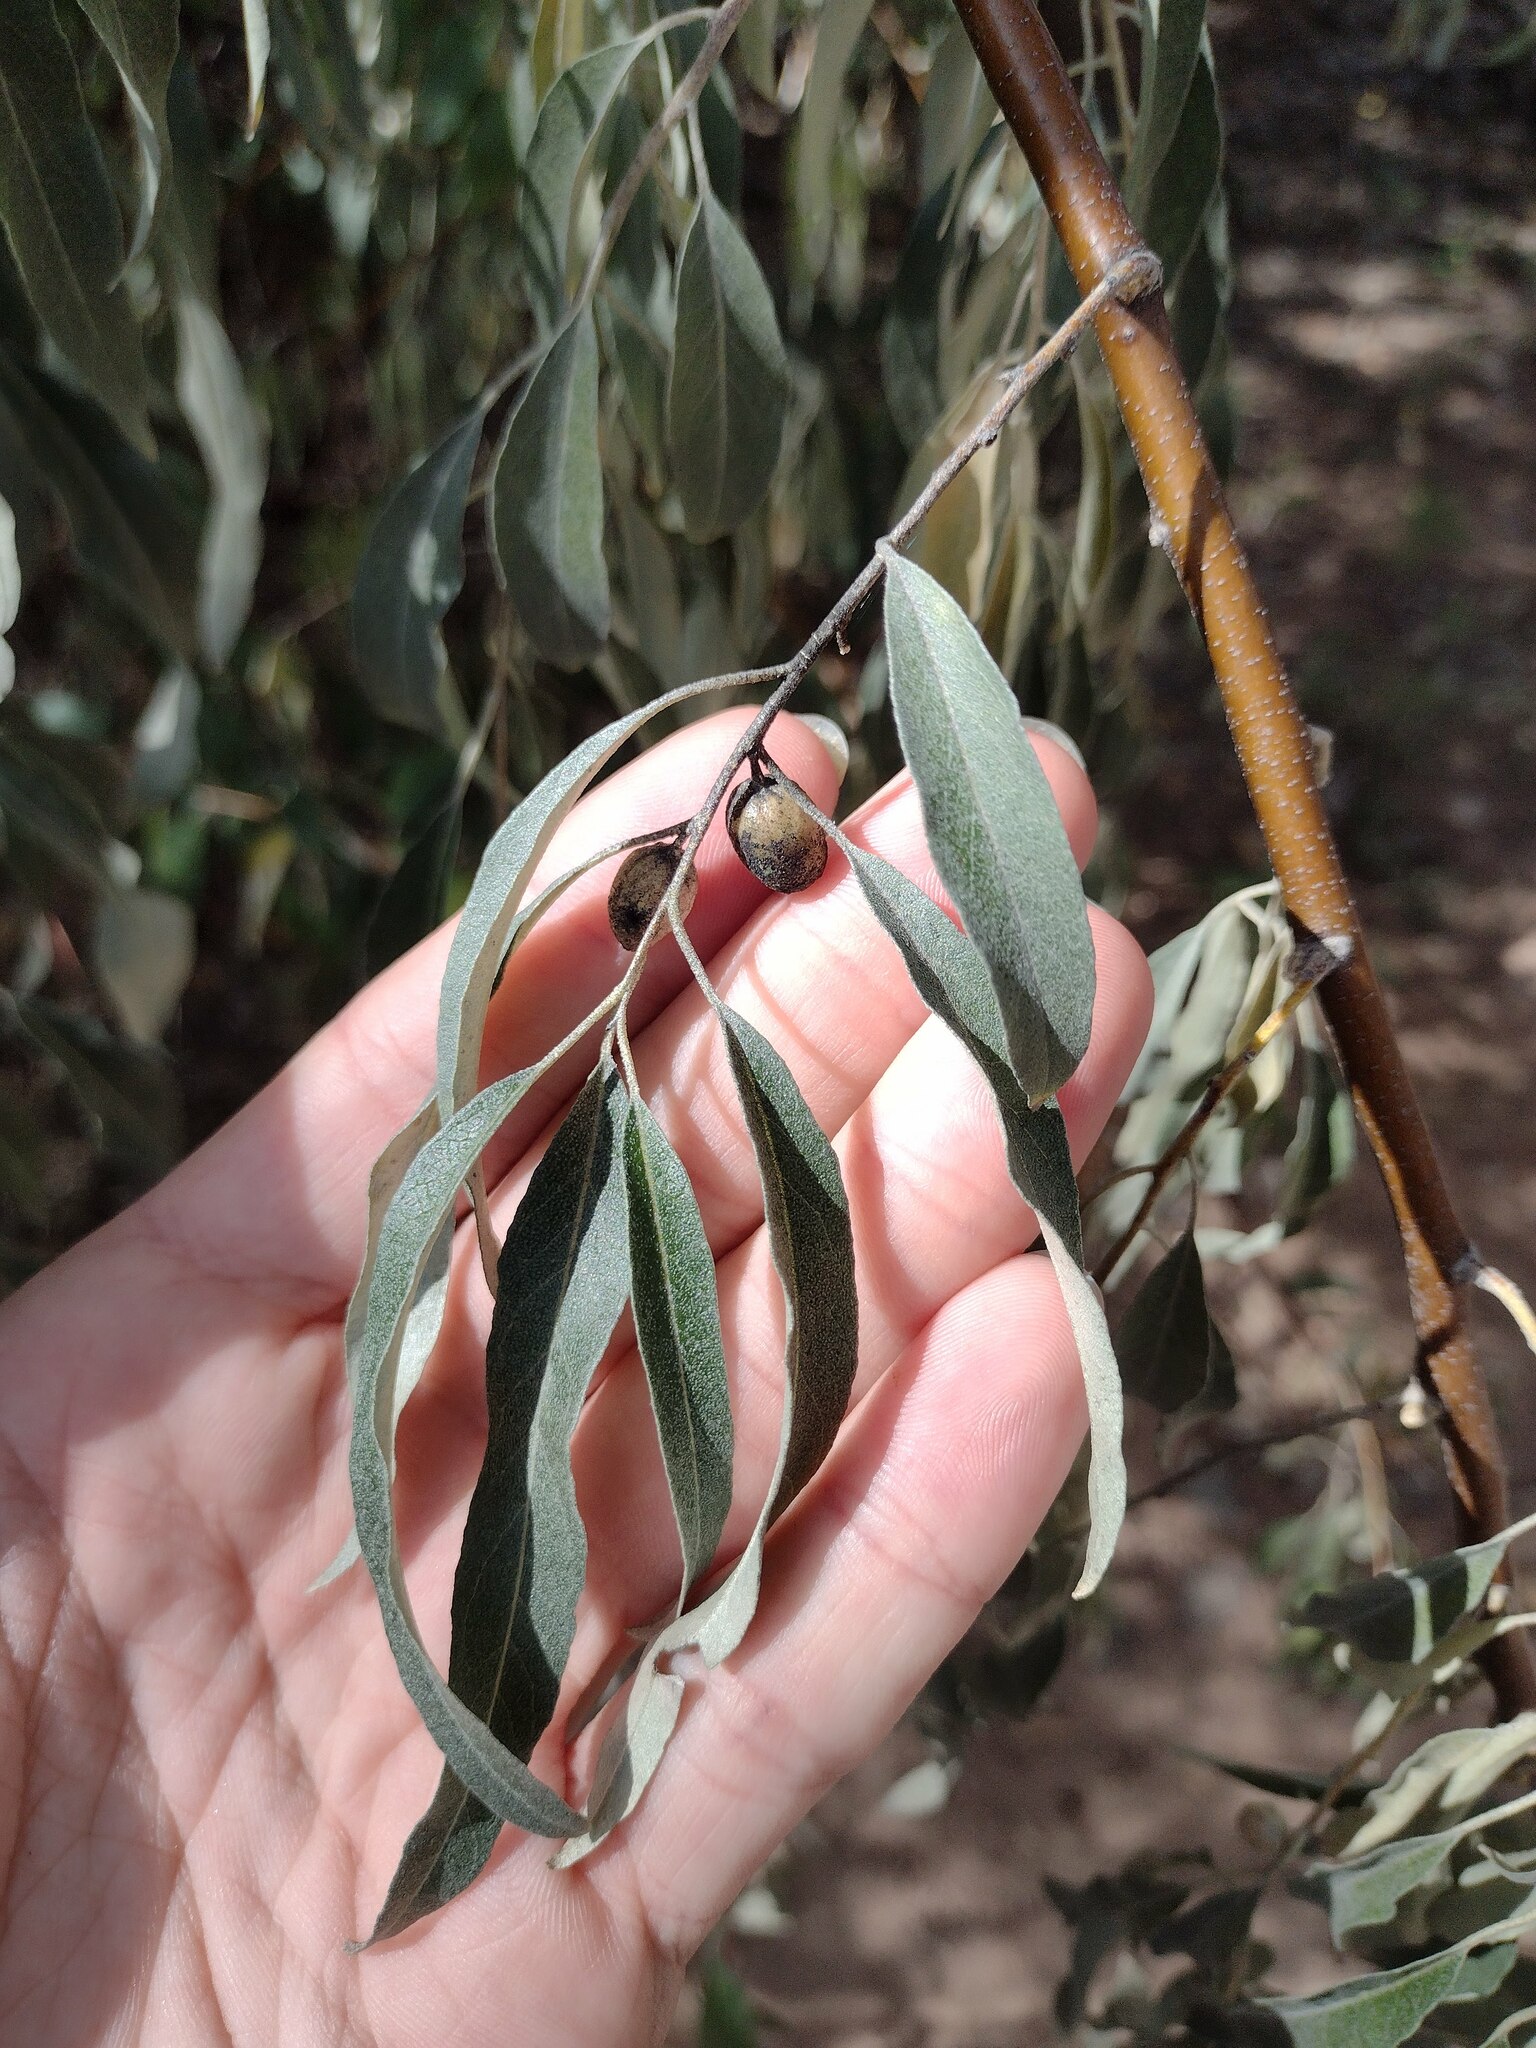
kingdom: Plantae
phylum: Tracheophyta
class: Magnoliopsida
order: Rosales
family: Elaeagnaceae
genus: Elaeagnus
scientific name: Elaeagnus angustifolia
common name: Russian olive
